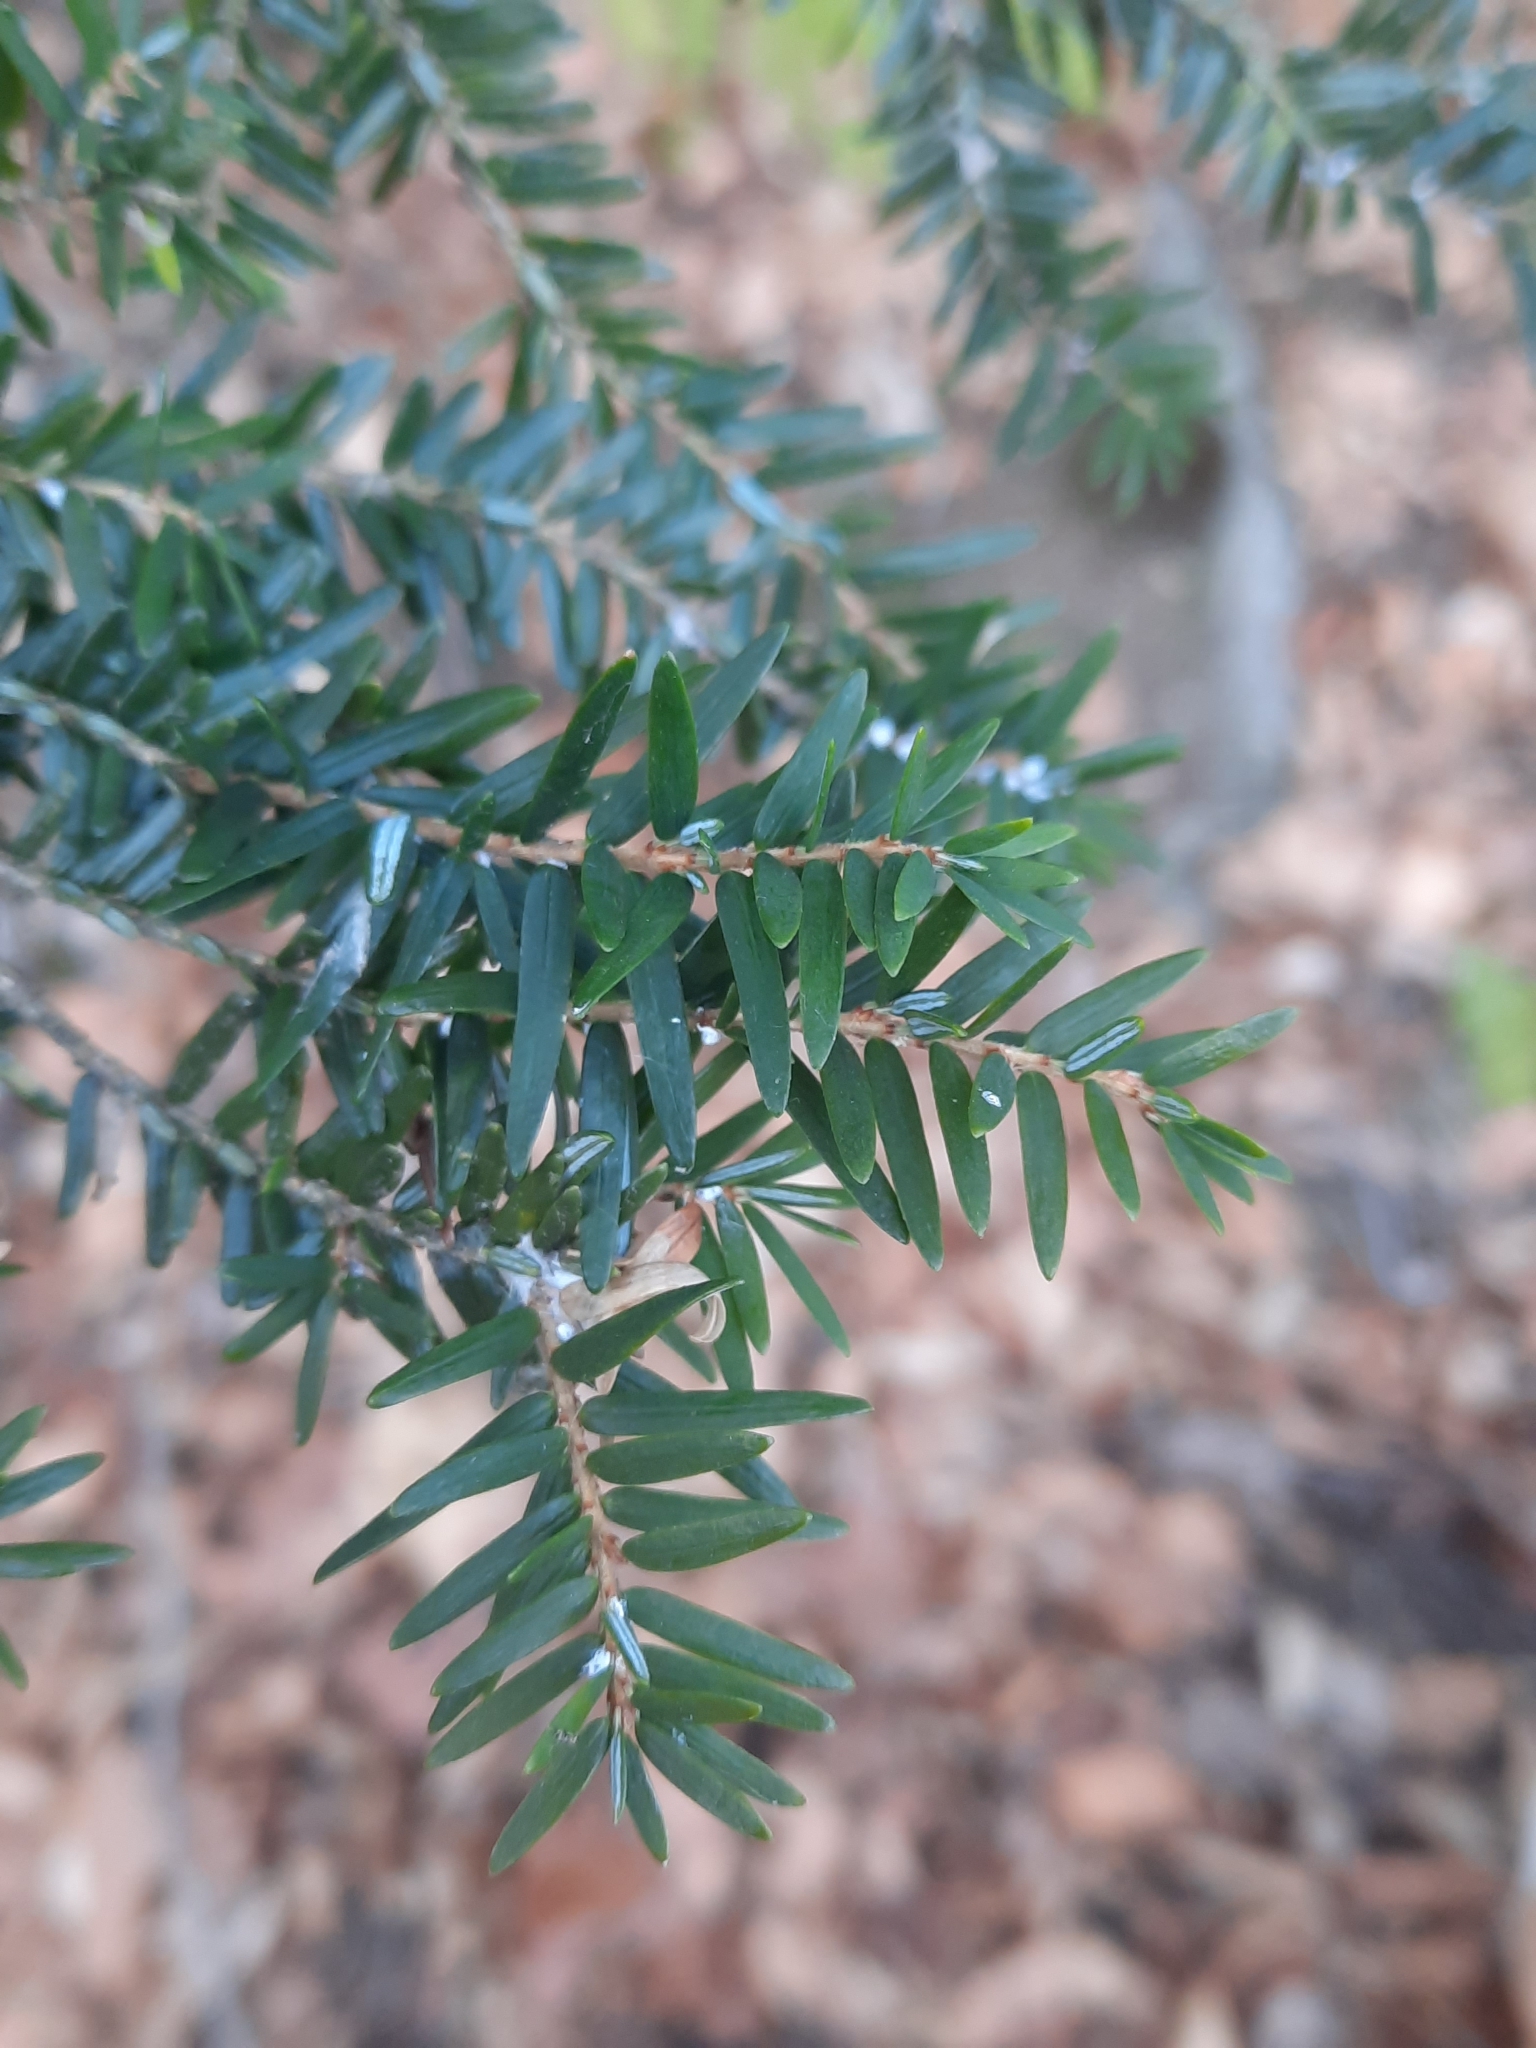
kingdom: Plantae
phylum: Tracheophyta
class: Pinopsida
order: Pinales
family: Pinaceae
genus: Tsuga
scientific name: Tsuga canadensis
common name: Eastern hemlock
